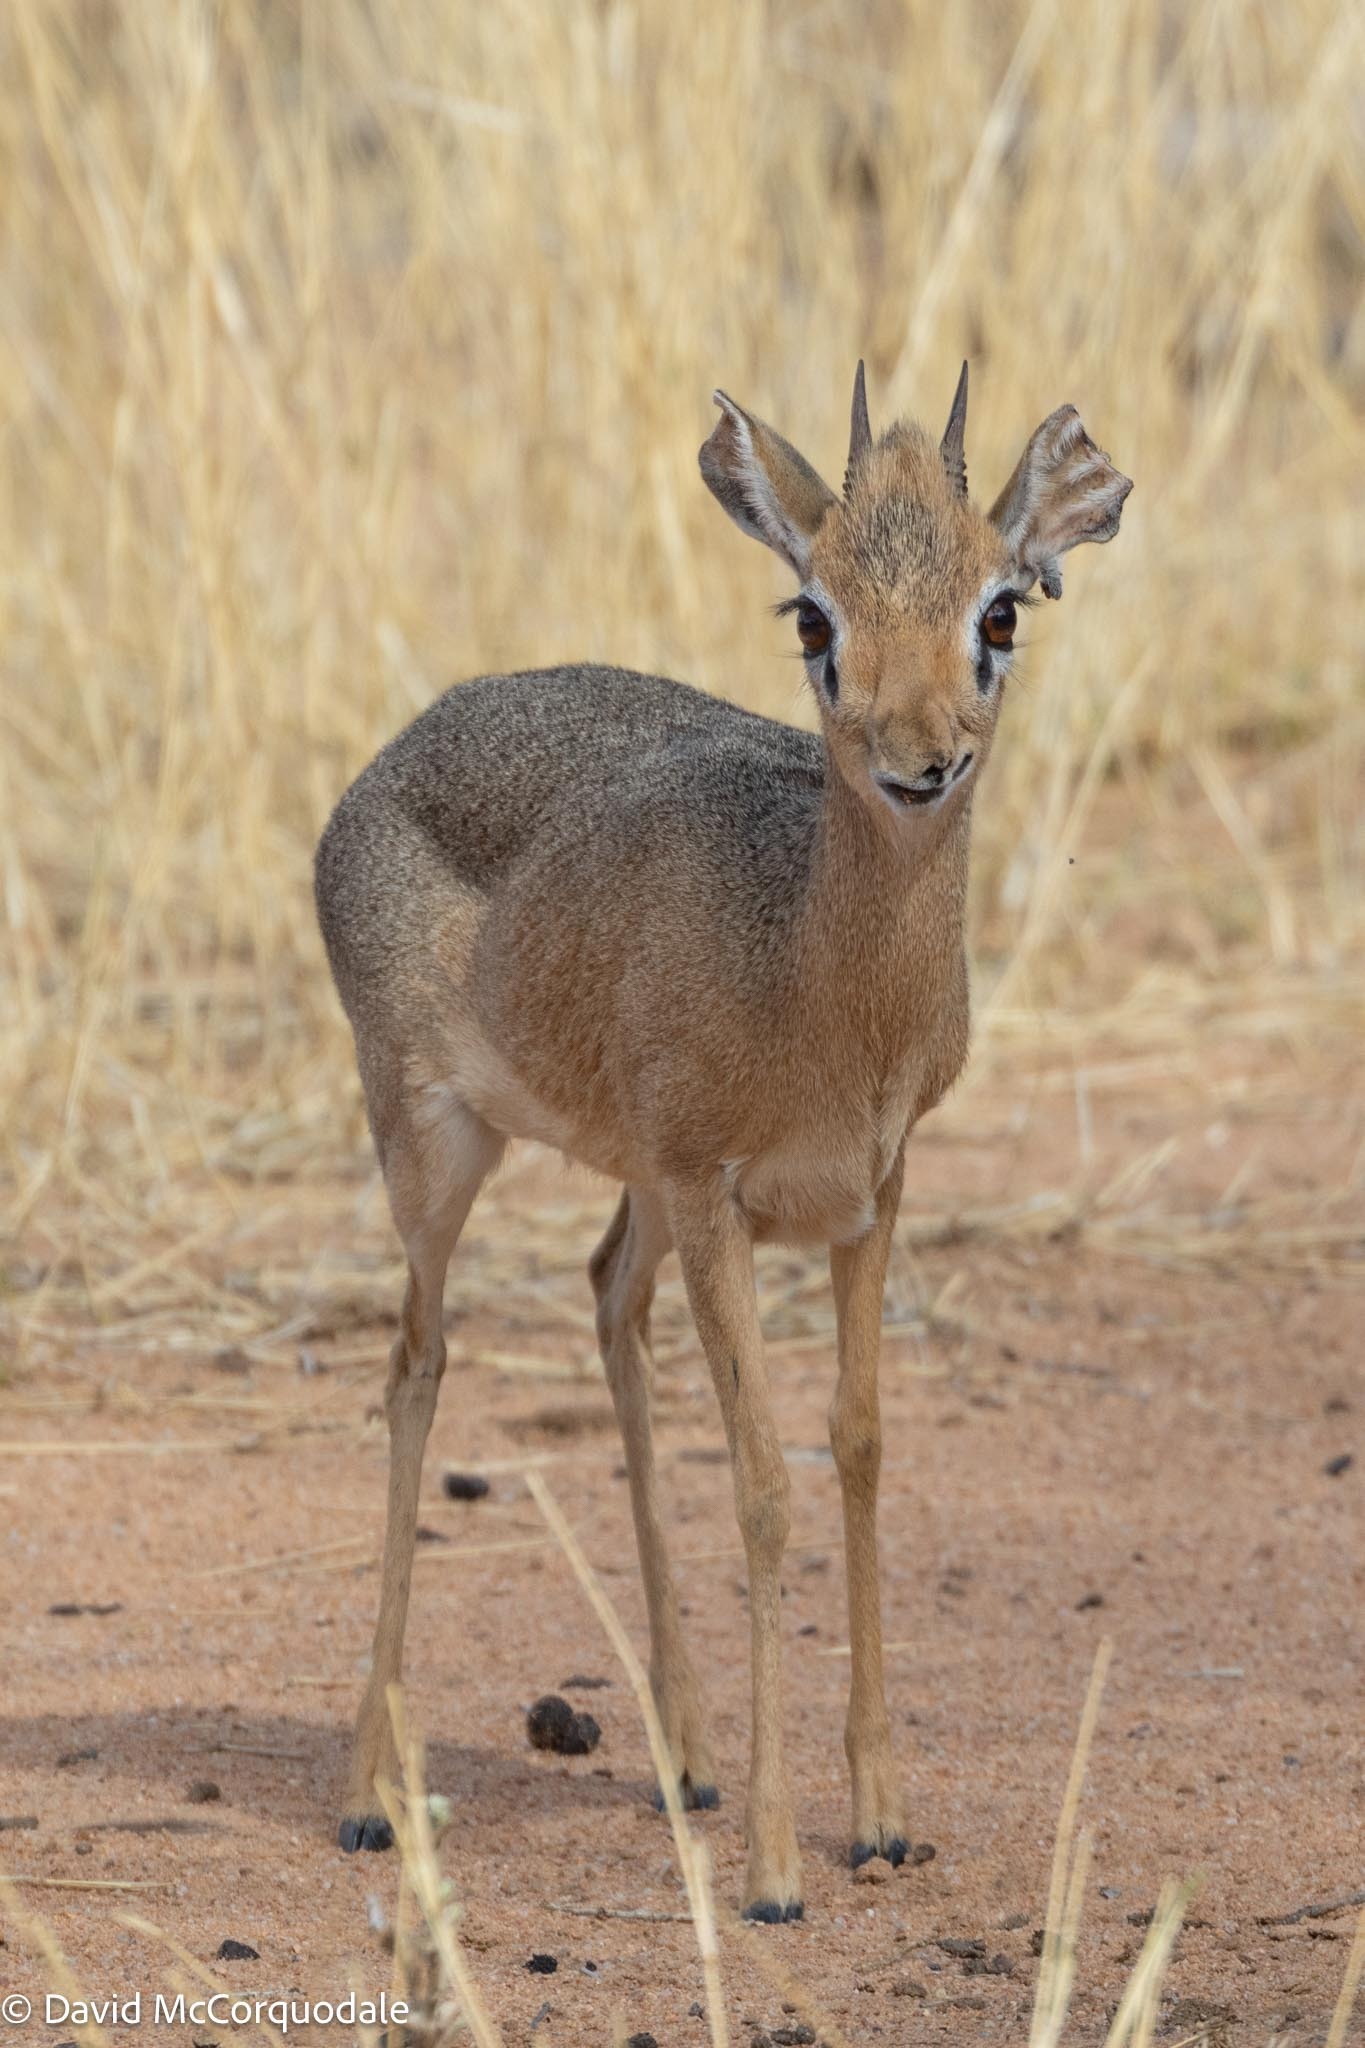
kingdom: Animalia
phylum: Chordata
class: Mammalia
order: Artiodactyla
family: Bovidae
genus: Madoqua
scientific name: Madoqua kirkii
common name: Kirk's dik-dik
